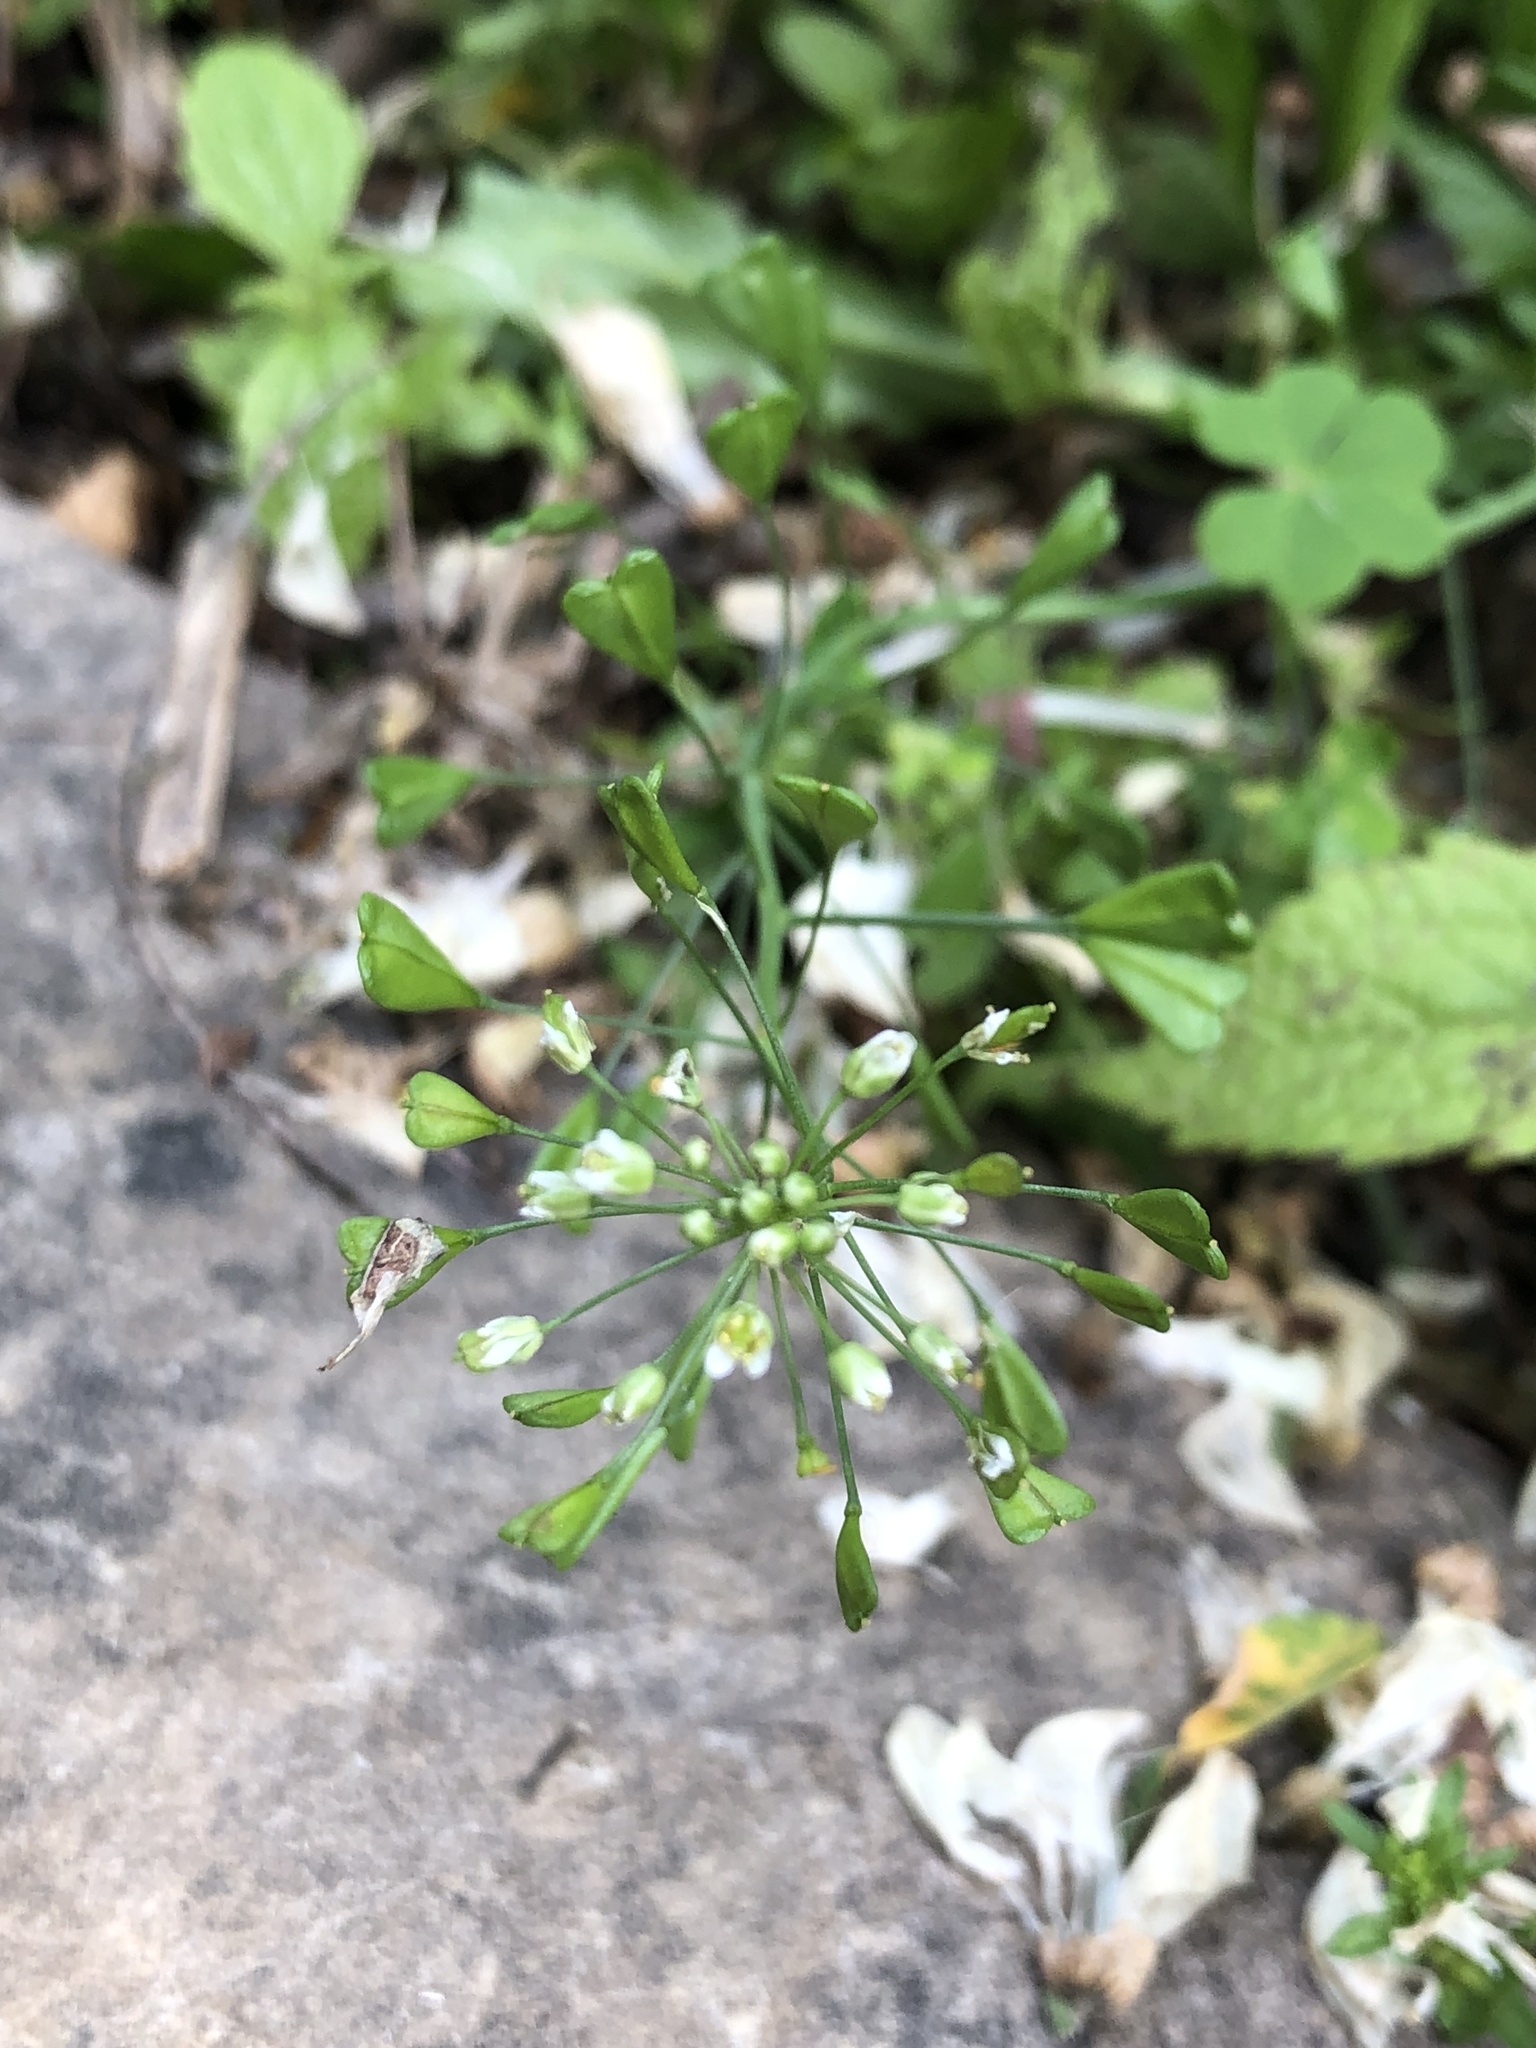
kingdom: Plantae
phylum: Tracheophyta
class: Magnoliopsida
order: Brassicales
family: Brassicaceae
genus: Capsella
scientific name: Capsella bursa-pastoris
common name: Shepherd's purse
